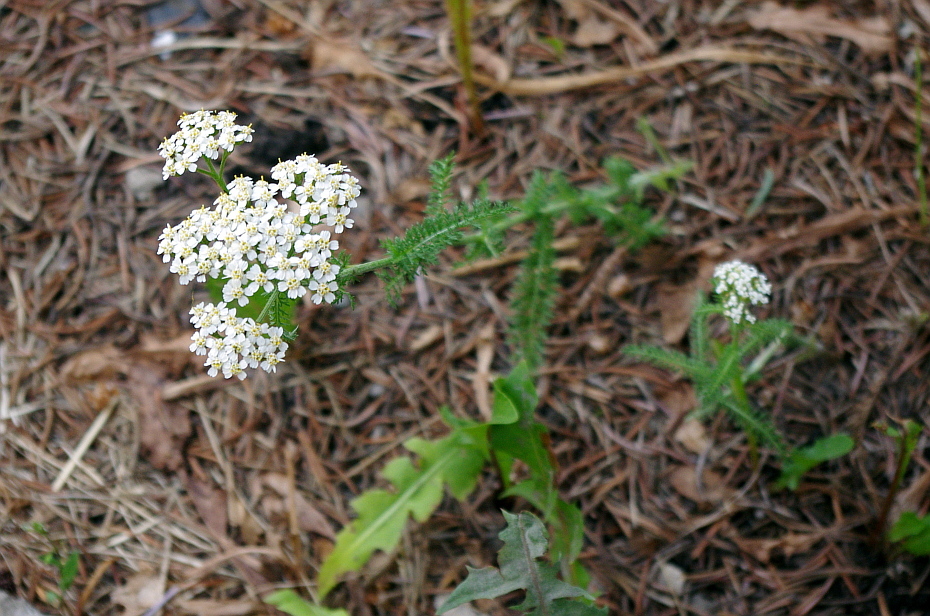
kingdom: Plantae
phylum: Tracheophyta
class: Magnoliopsida
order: Asterales
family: Asteraceae
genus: Achillea
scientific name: Achillea millefolium
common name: Yarrow
